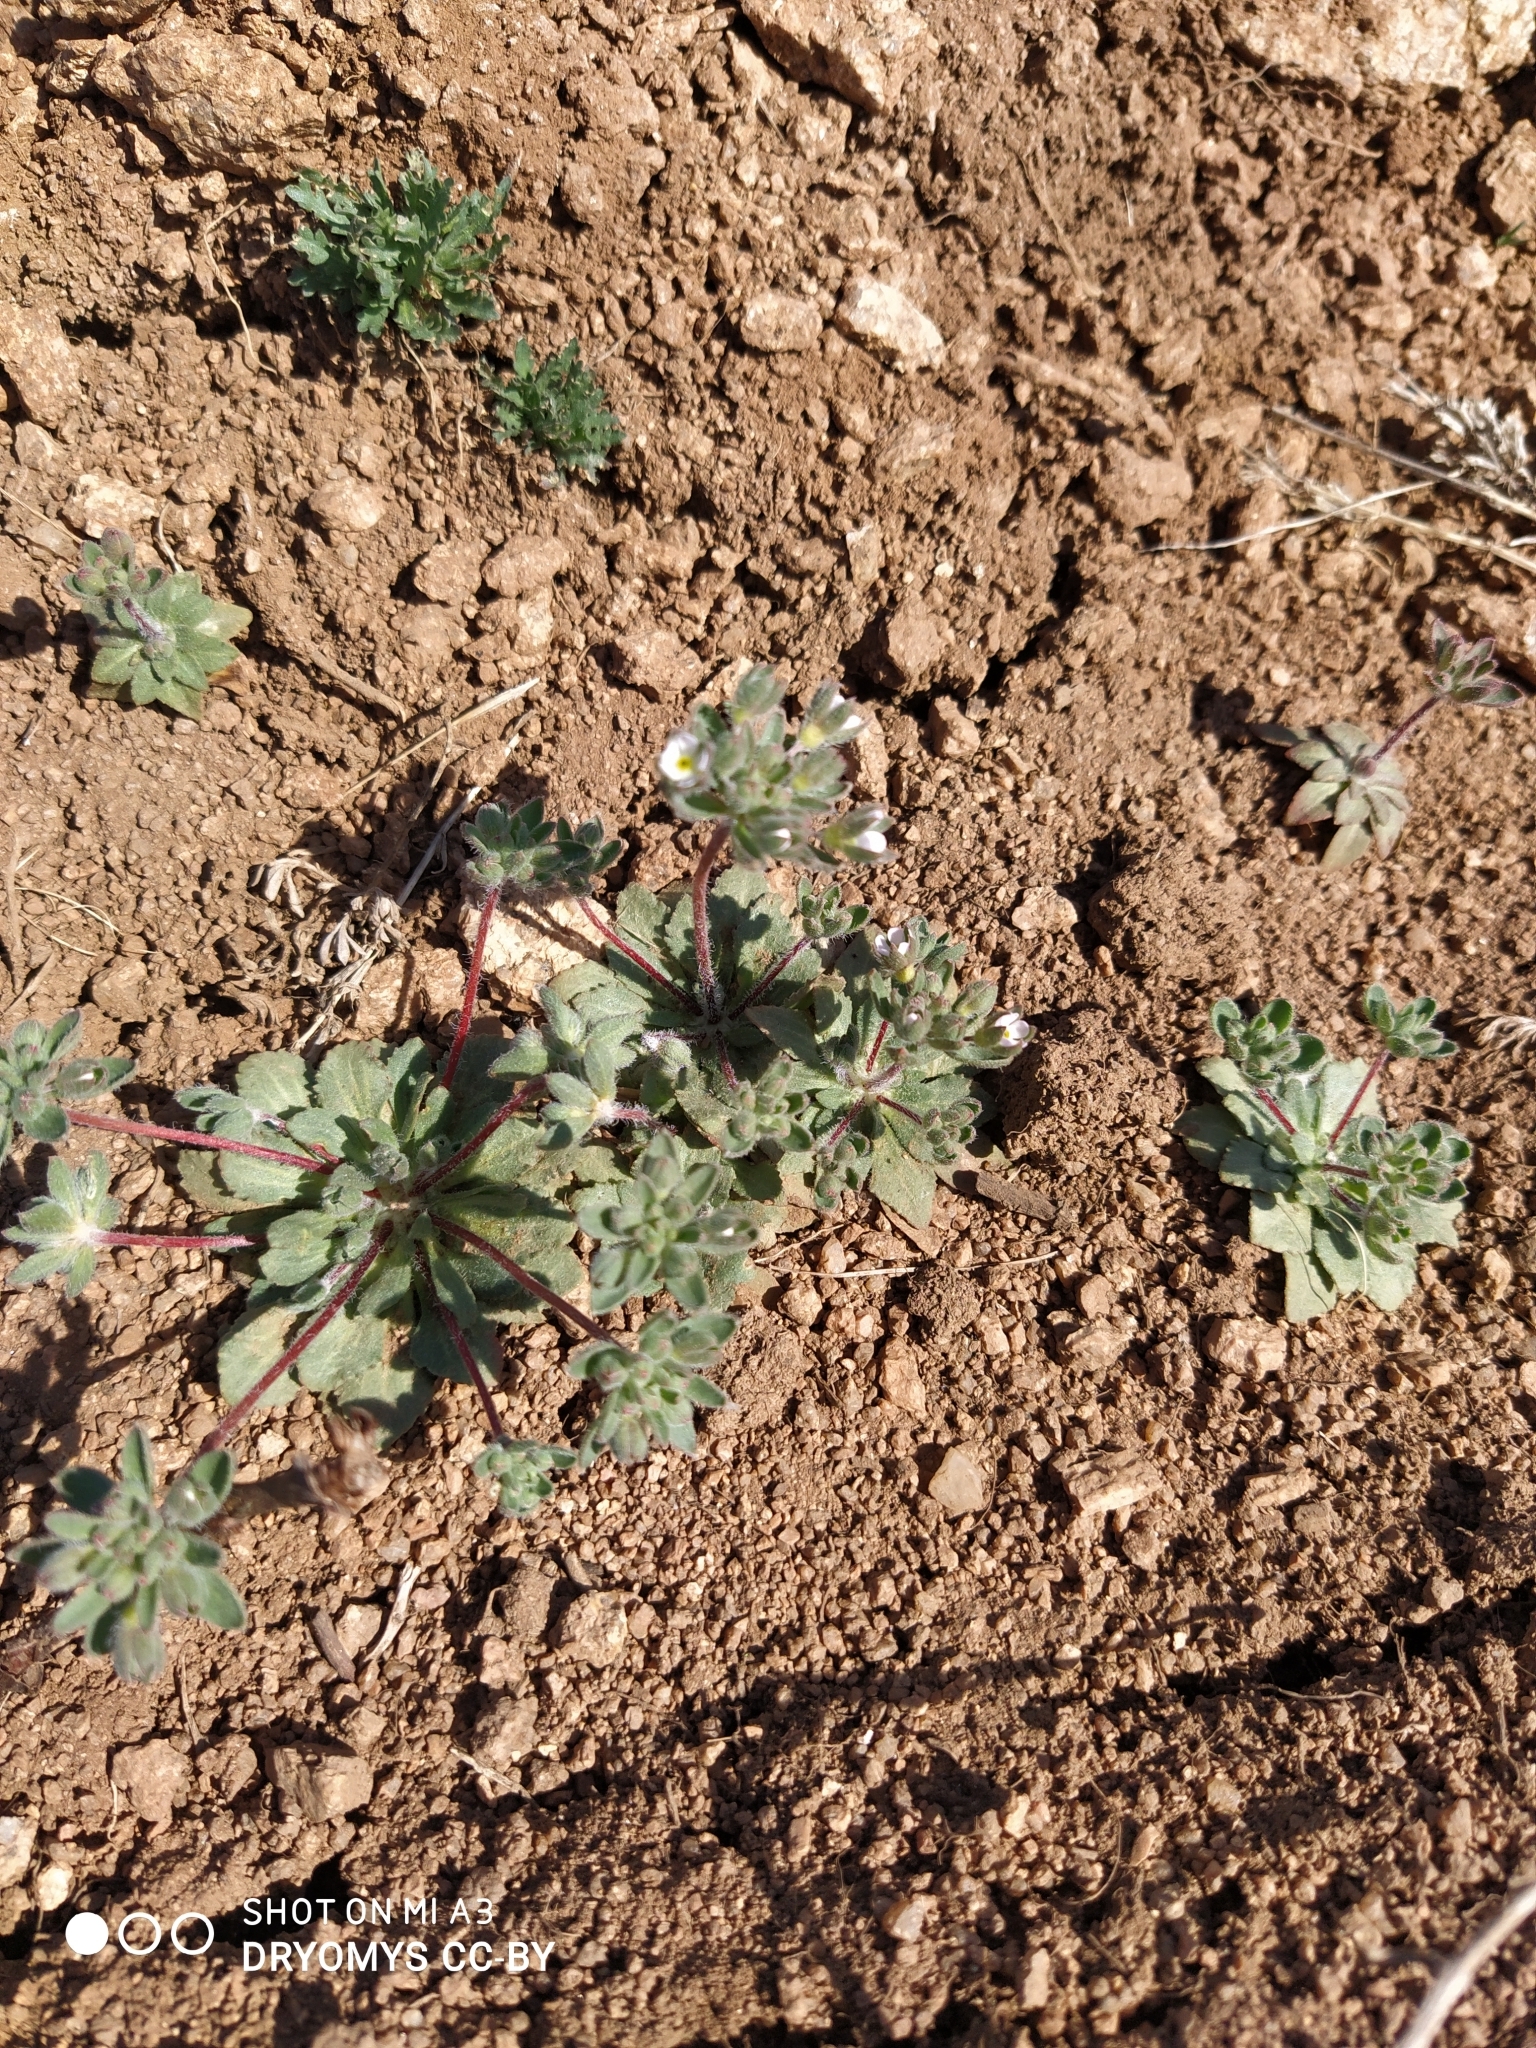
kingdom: Plantae
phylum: Tracheophyta
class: Magnoliopsida
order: Ericales
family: Primulaceae
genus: Androsace
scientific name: Androsace maxima
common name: Annual androsace
